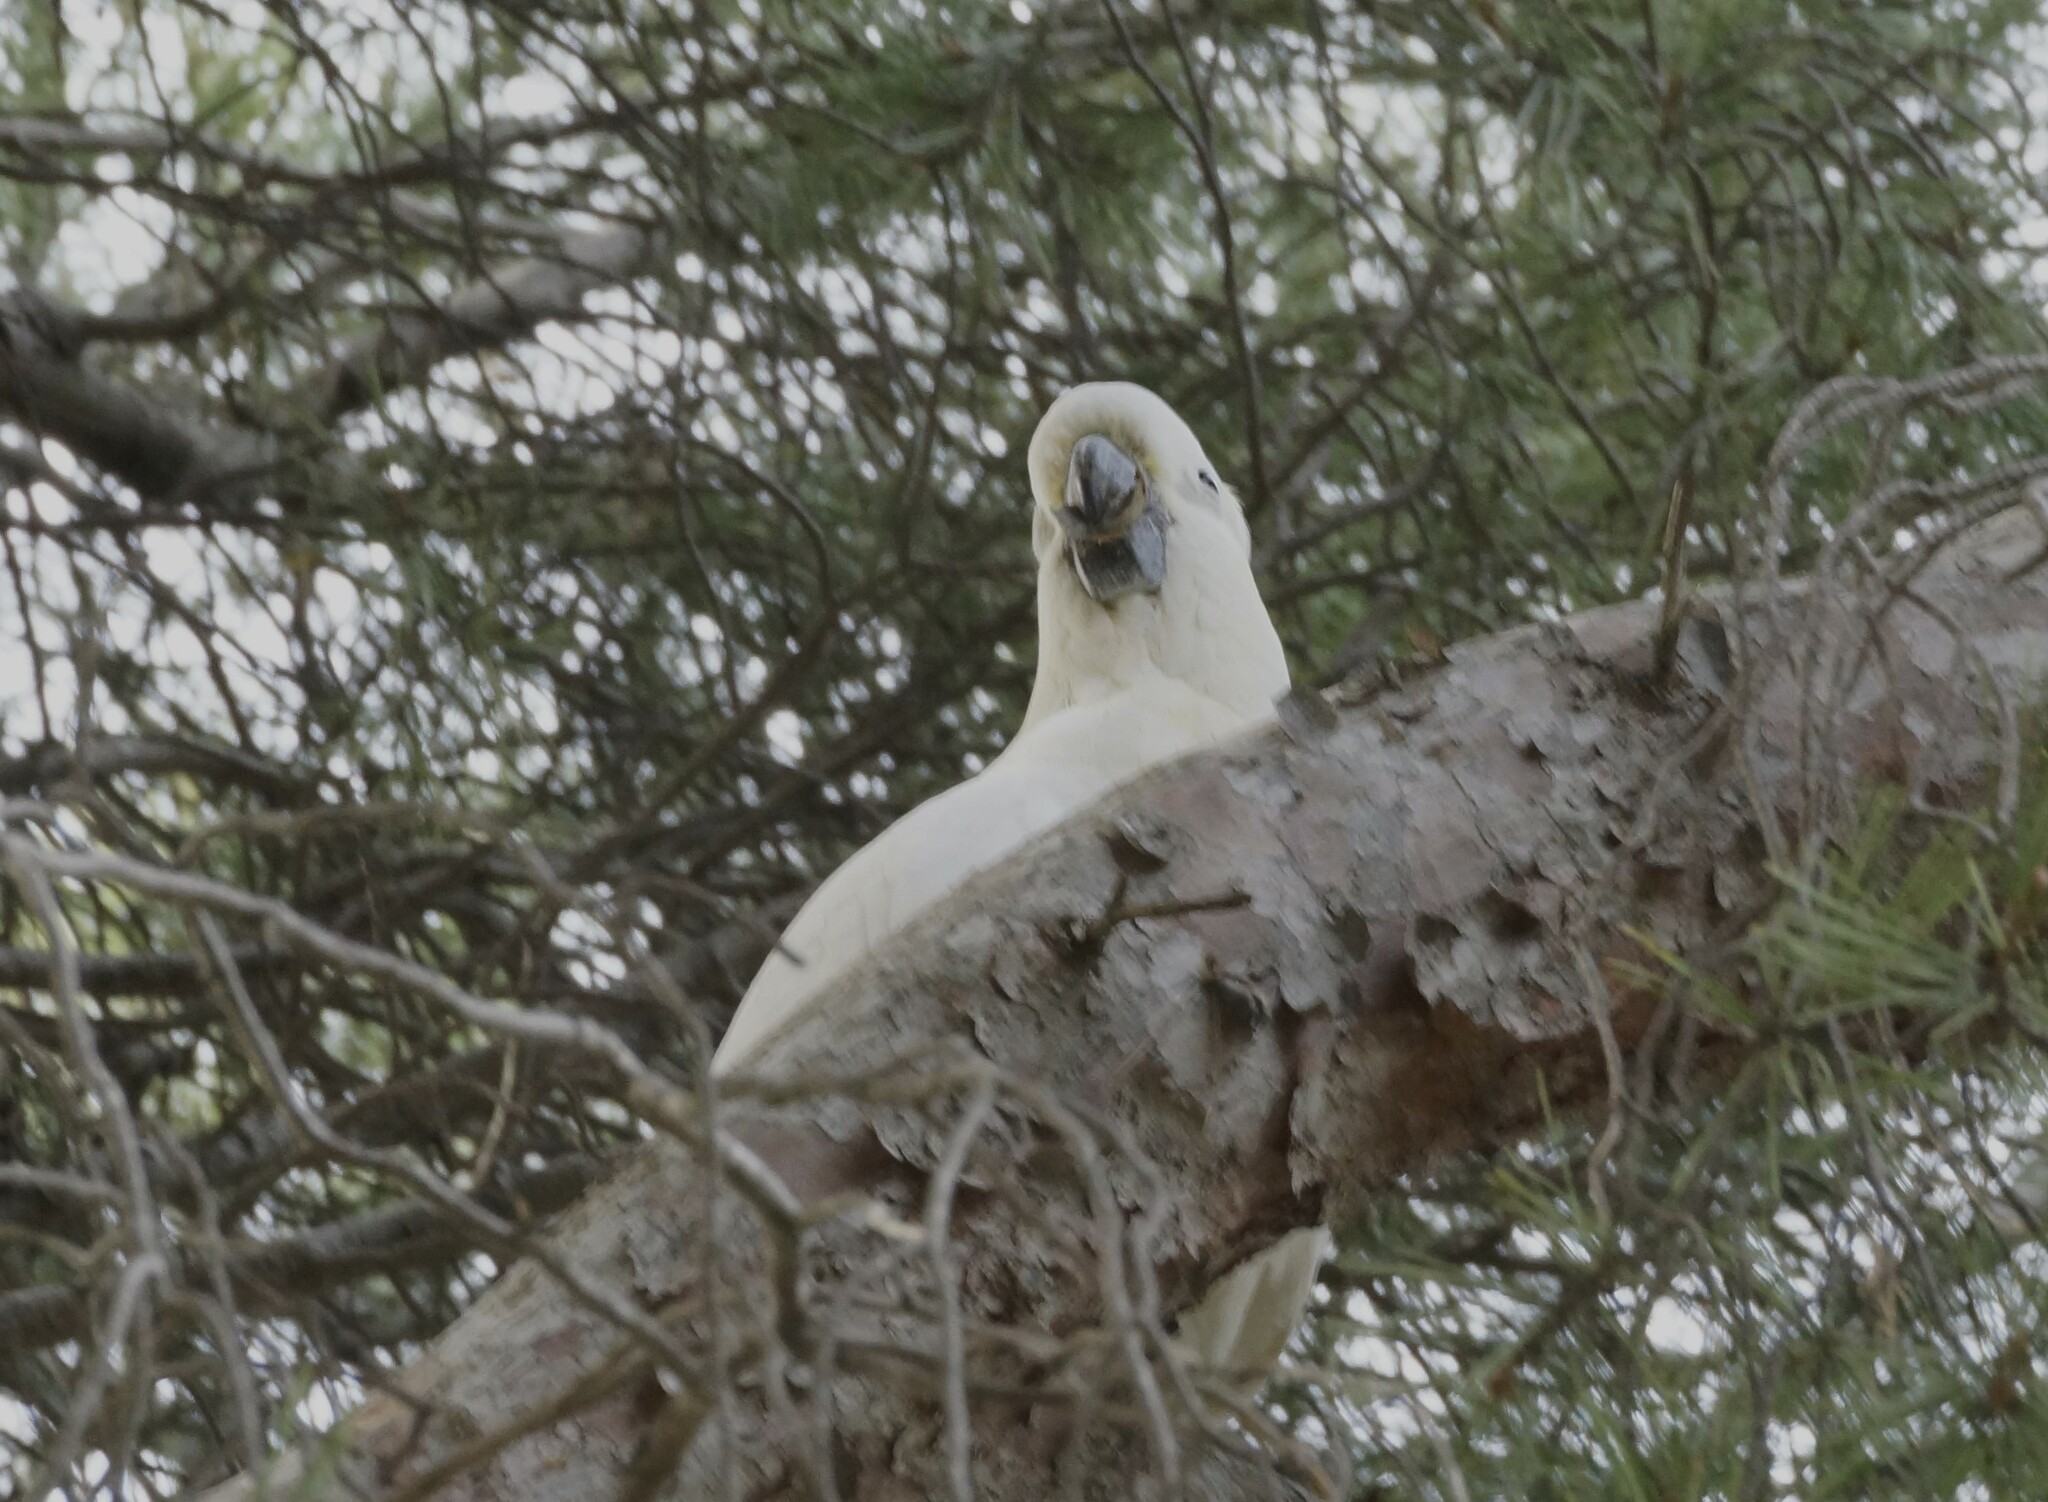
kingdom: Animalia
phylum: Chordata
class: Aves
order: Psittaciformes
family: Psittacidae
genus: Cacatua
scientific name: Cacatua galerita
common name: Sulphur-crested cockatoo
